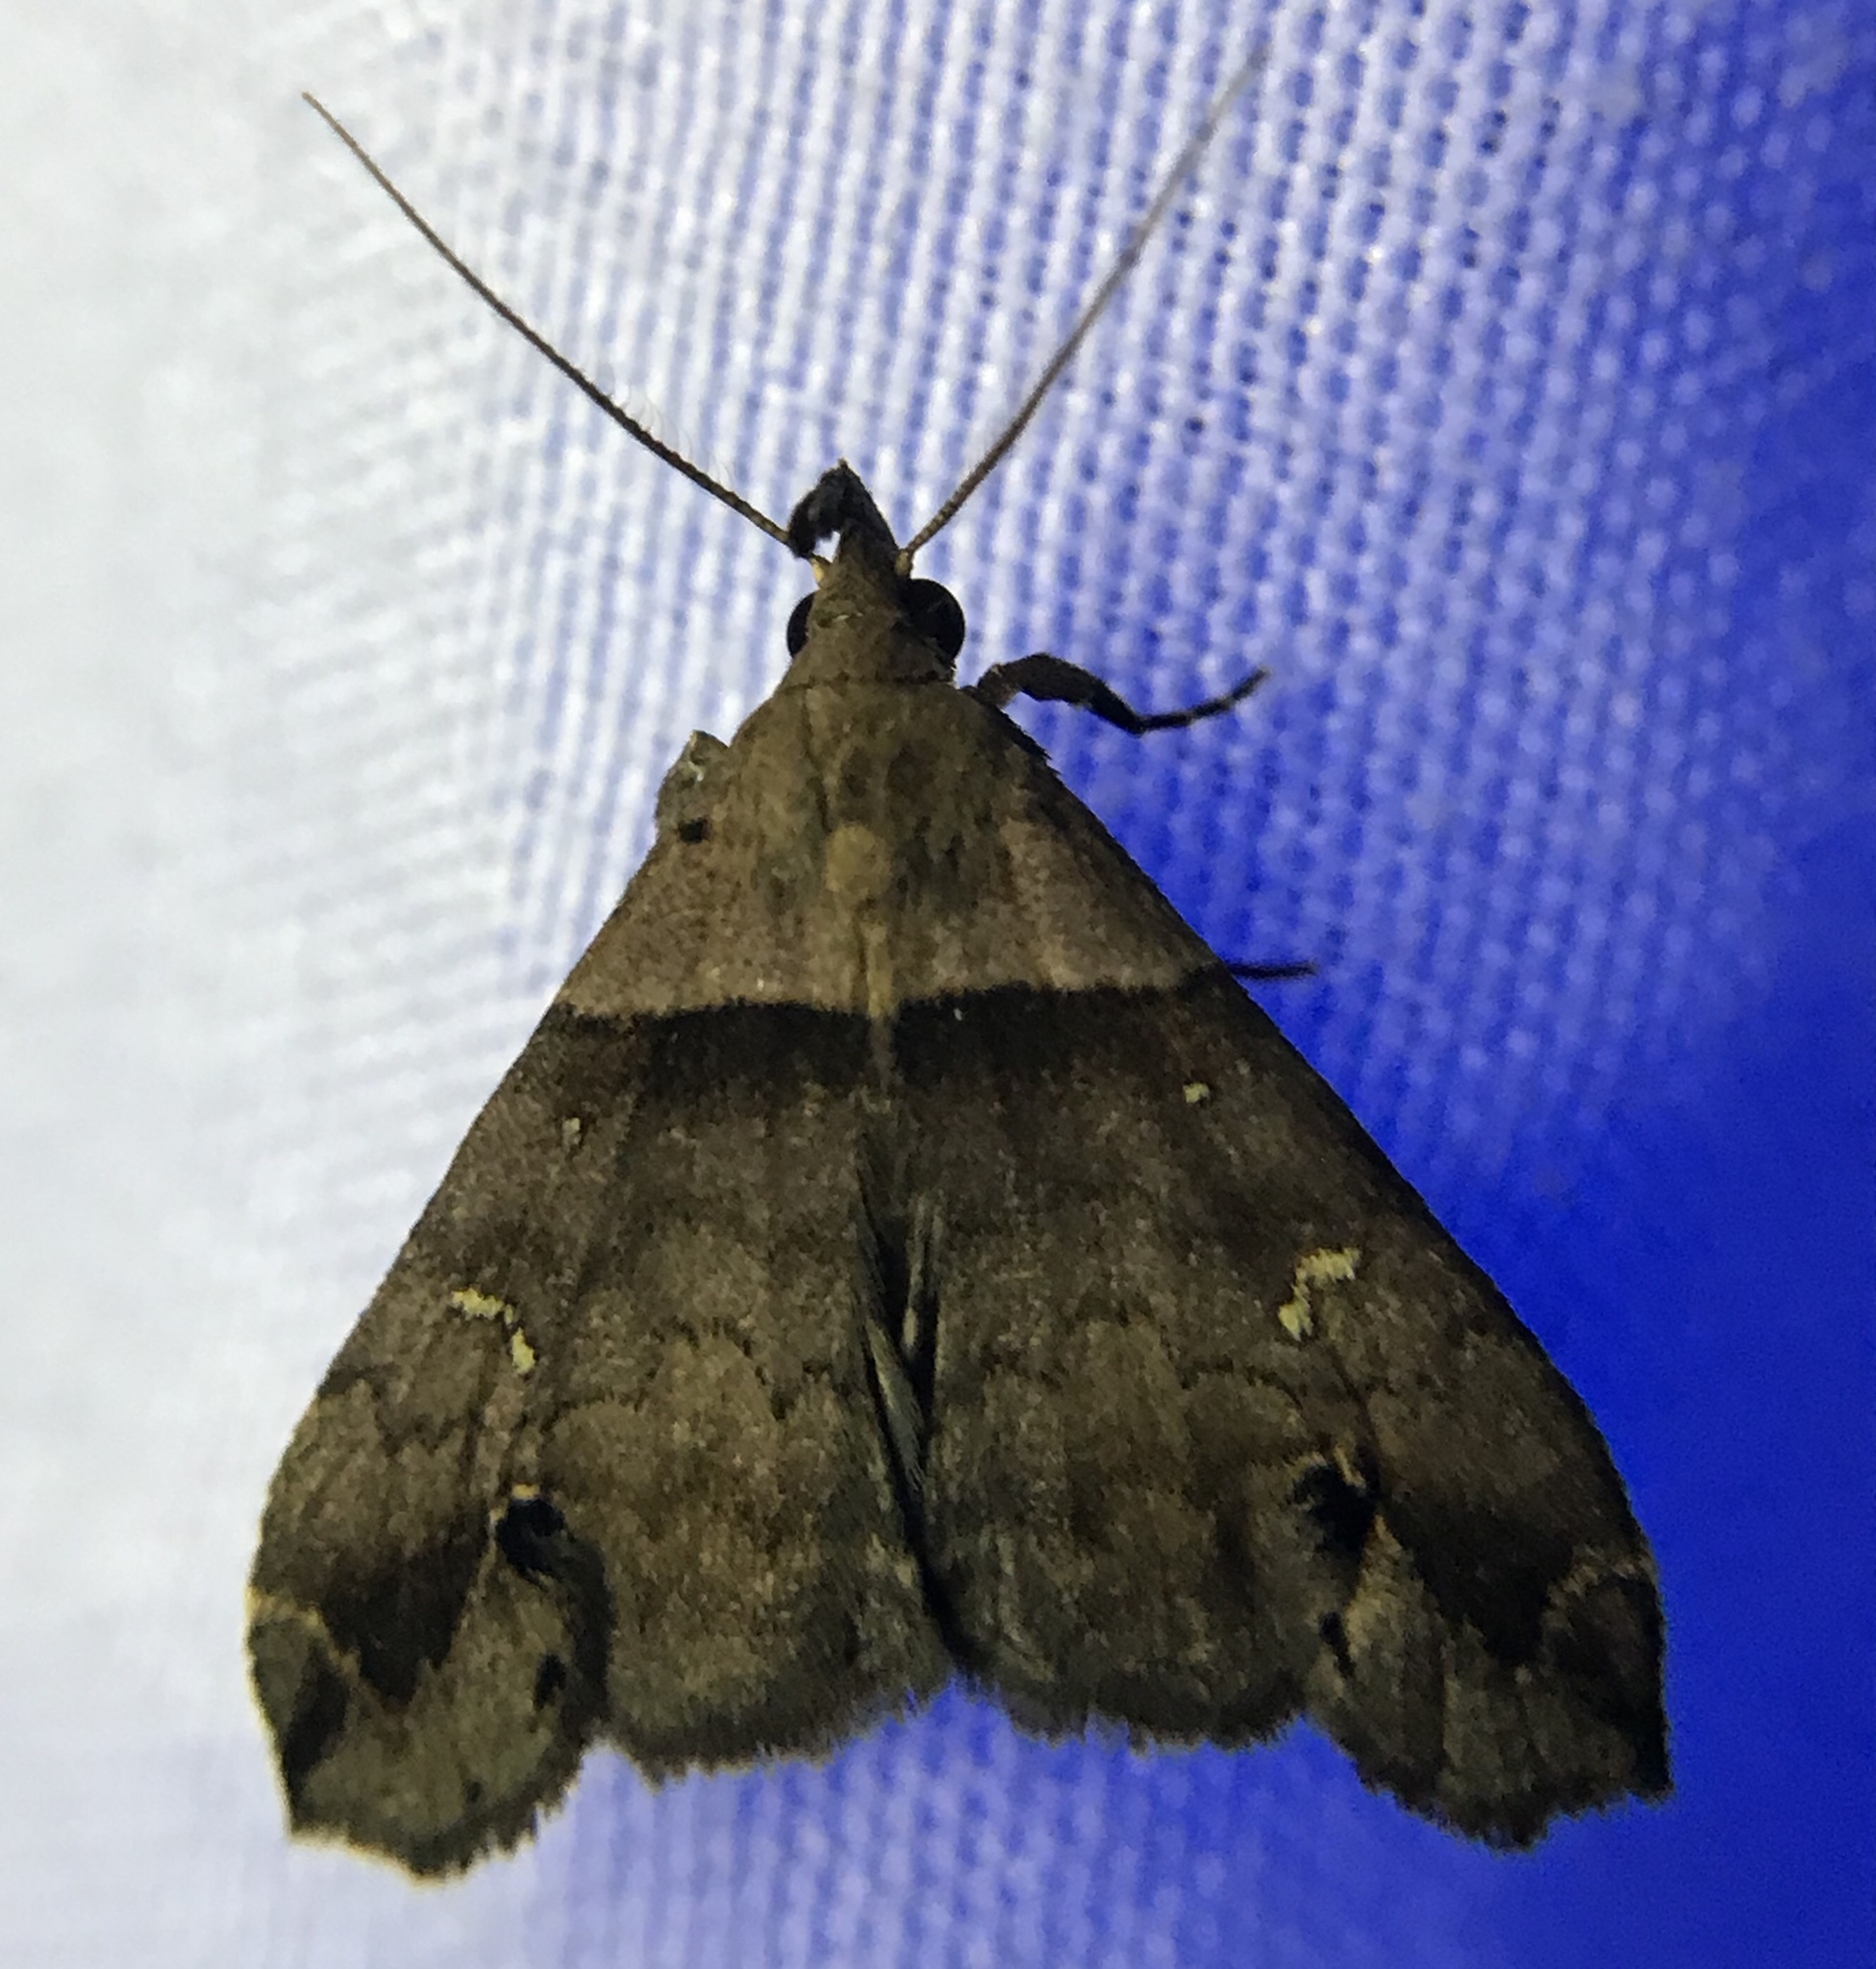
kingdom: Animalia
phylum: Arthropoda
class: Insecta
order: Lepidoptera
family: Erebidae
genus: Lascoria
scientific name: Lascoria ambigualis
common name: Ambiguous moth
